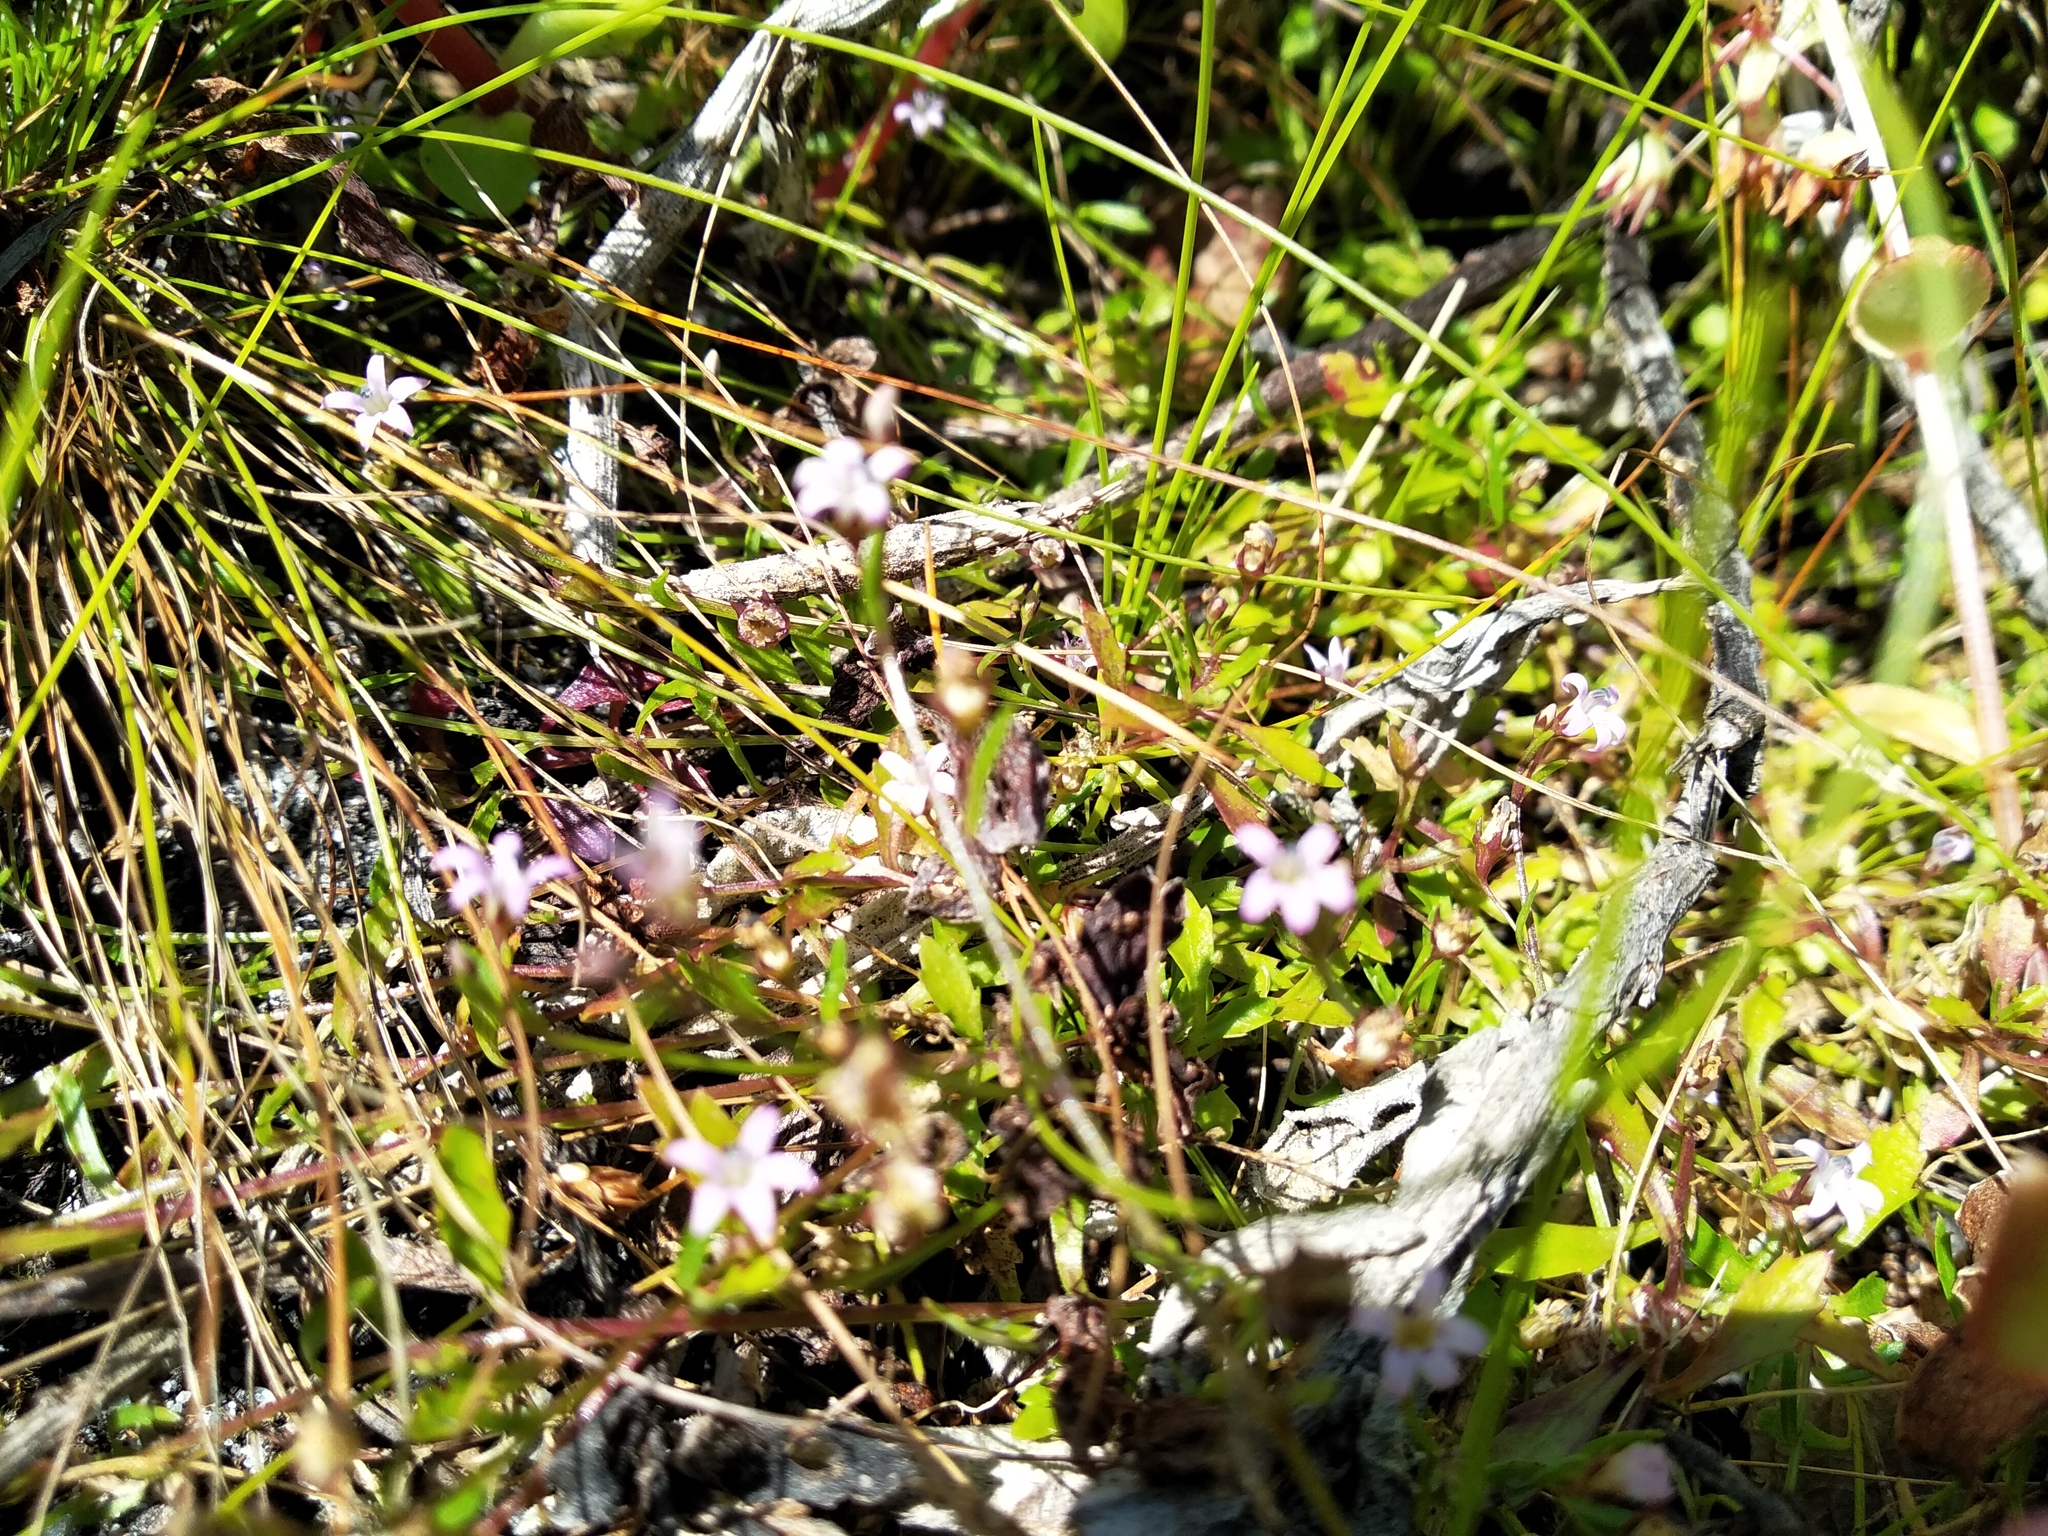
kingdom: Plantae
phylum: Tracheophyta
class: Magnoliopsida
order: Asterales
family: Campanulaceae
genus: Lobelia
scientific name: Lobelia eckloniana
